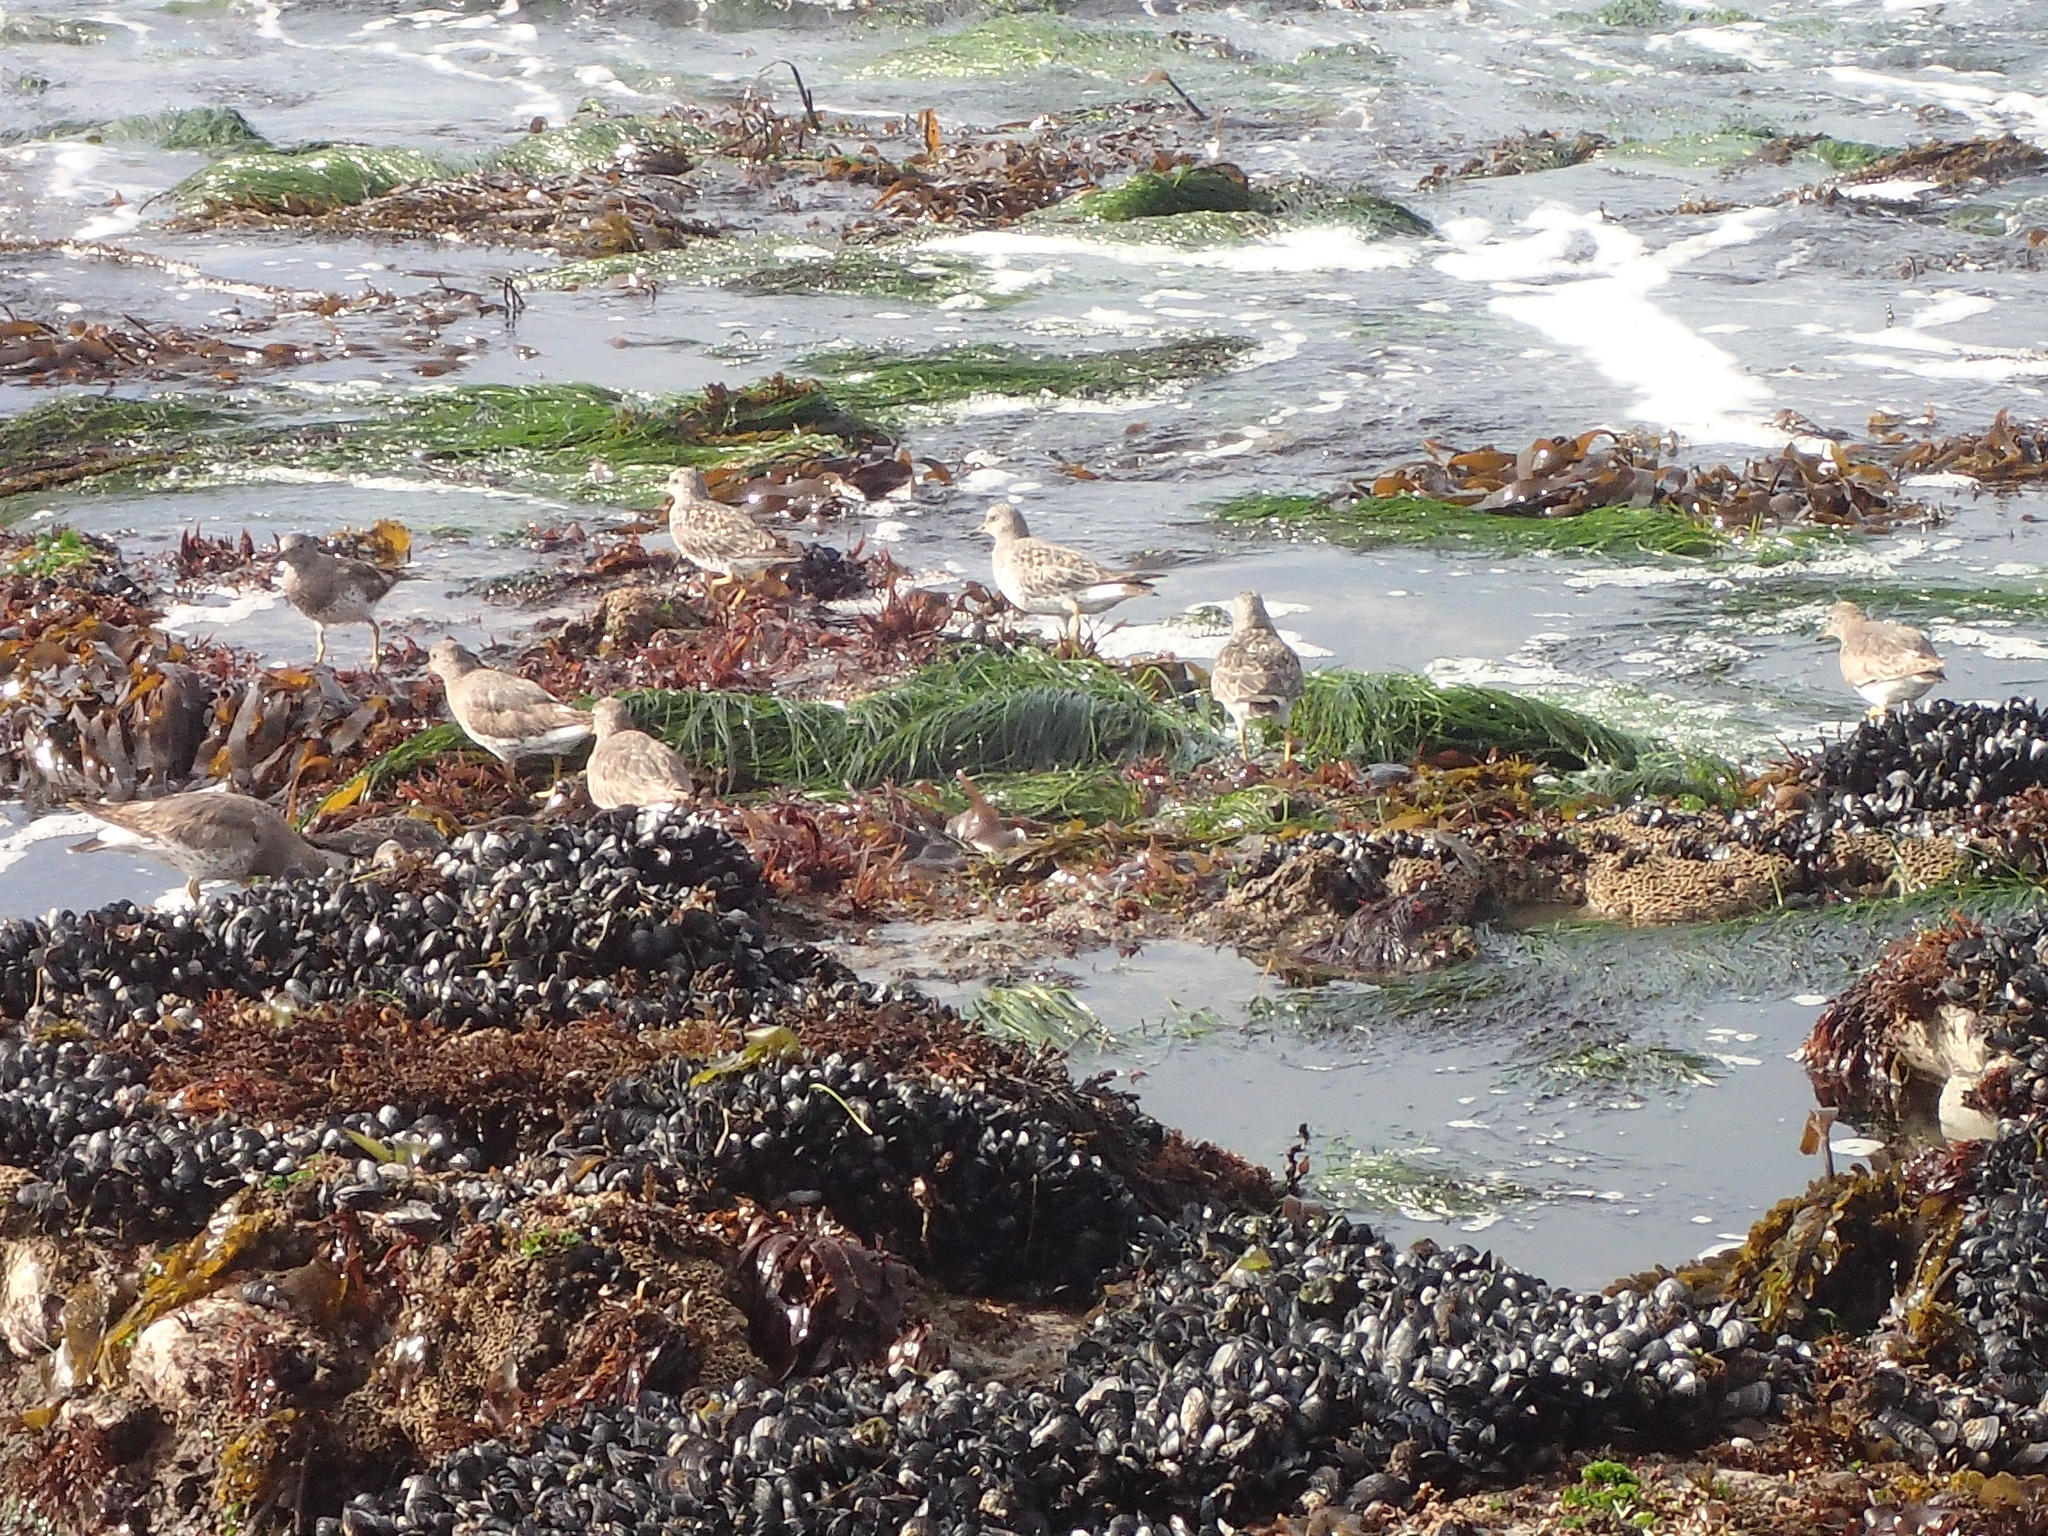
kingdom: Animalia
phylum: Chordata
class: Aves
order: Charadriiformes
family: Scolopacidae
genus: Calidris
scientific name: Calidris virgata
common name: Surfbird
